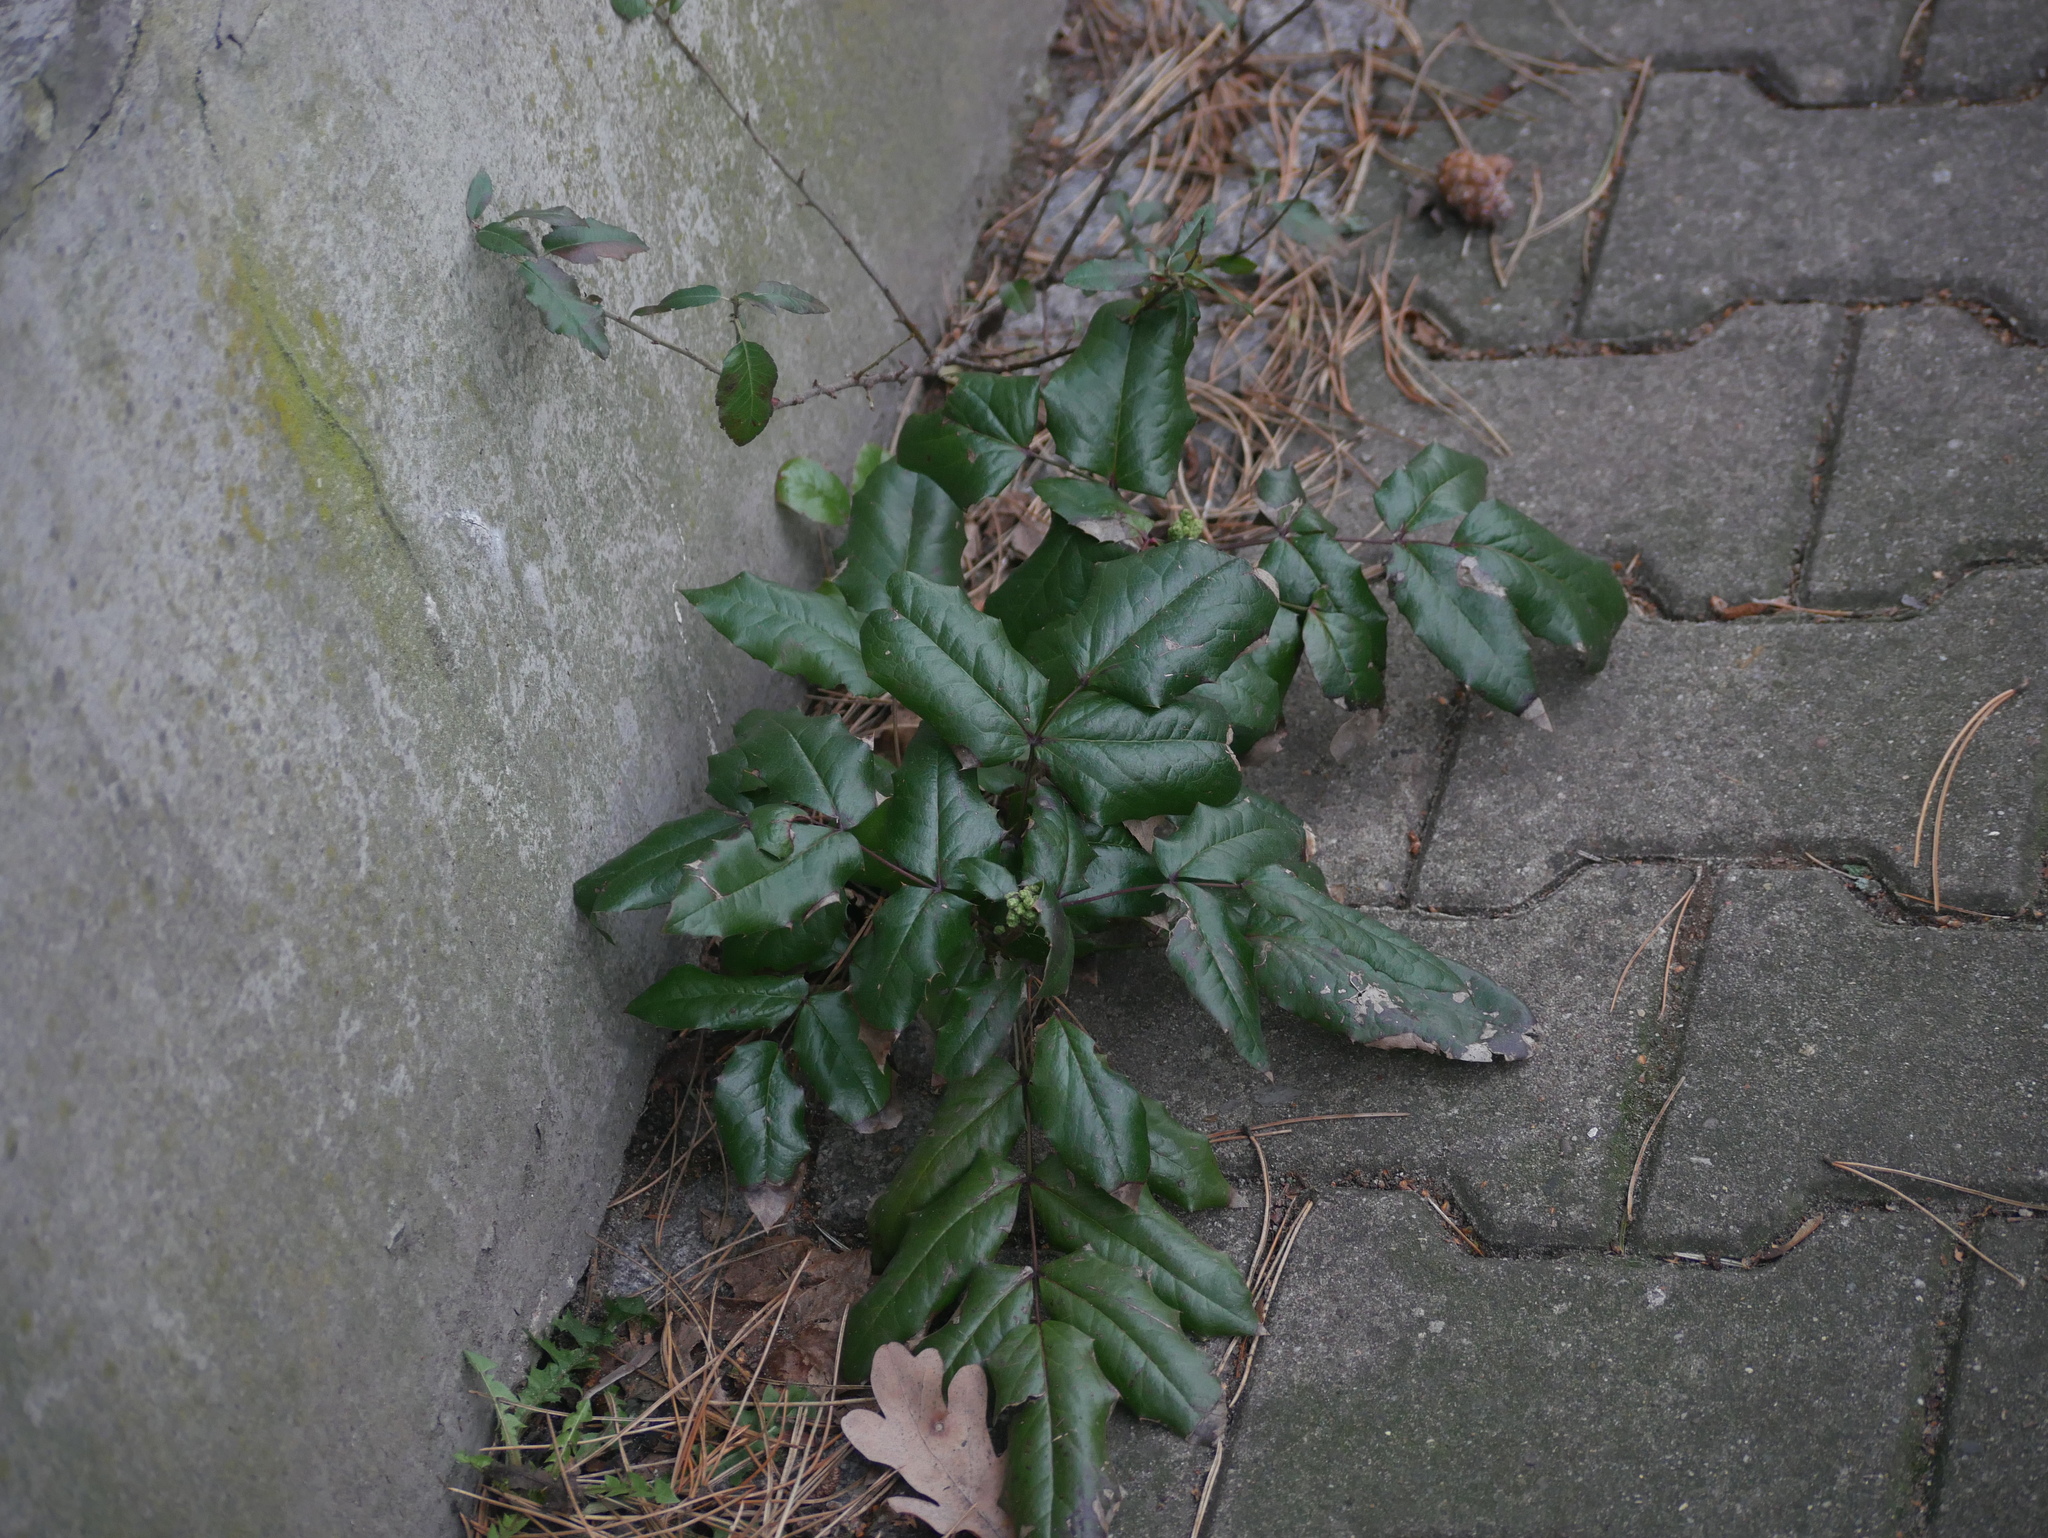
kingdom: Plantae
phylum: Tracheophyta
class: Magnoliopsida
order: Ranunculales
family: Berberidaceae
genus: Mahonia
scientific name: Mahonia aquifolium
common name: Oregon-grape
